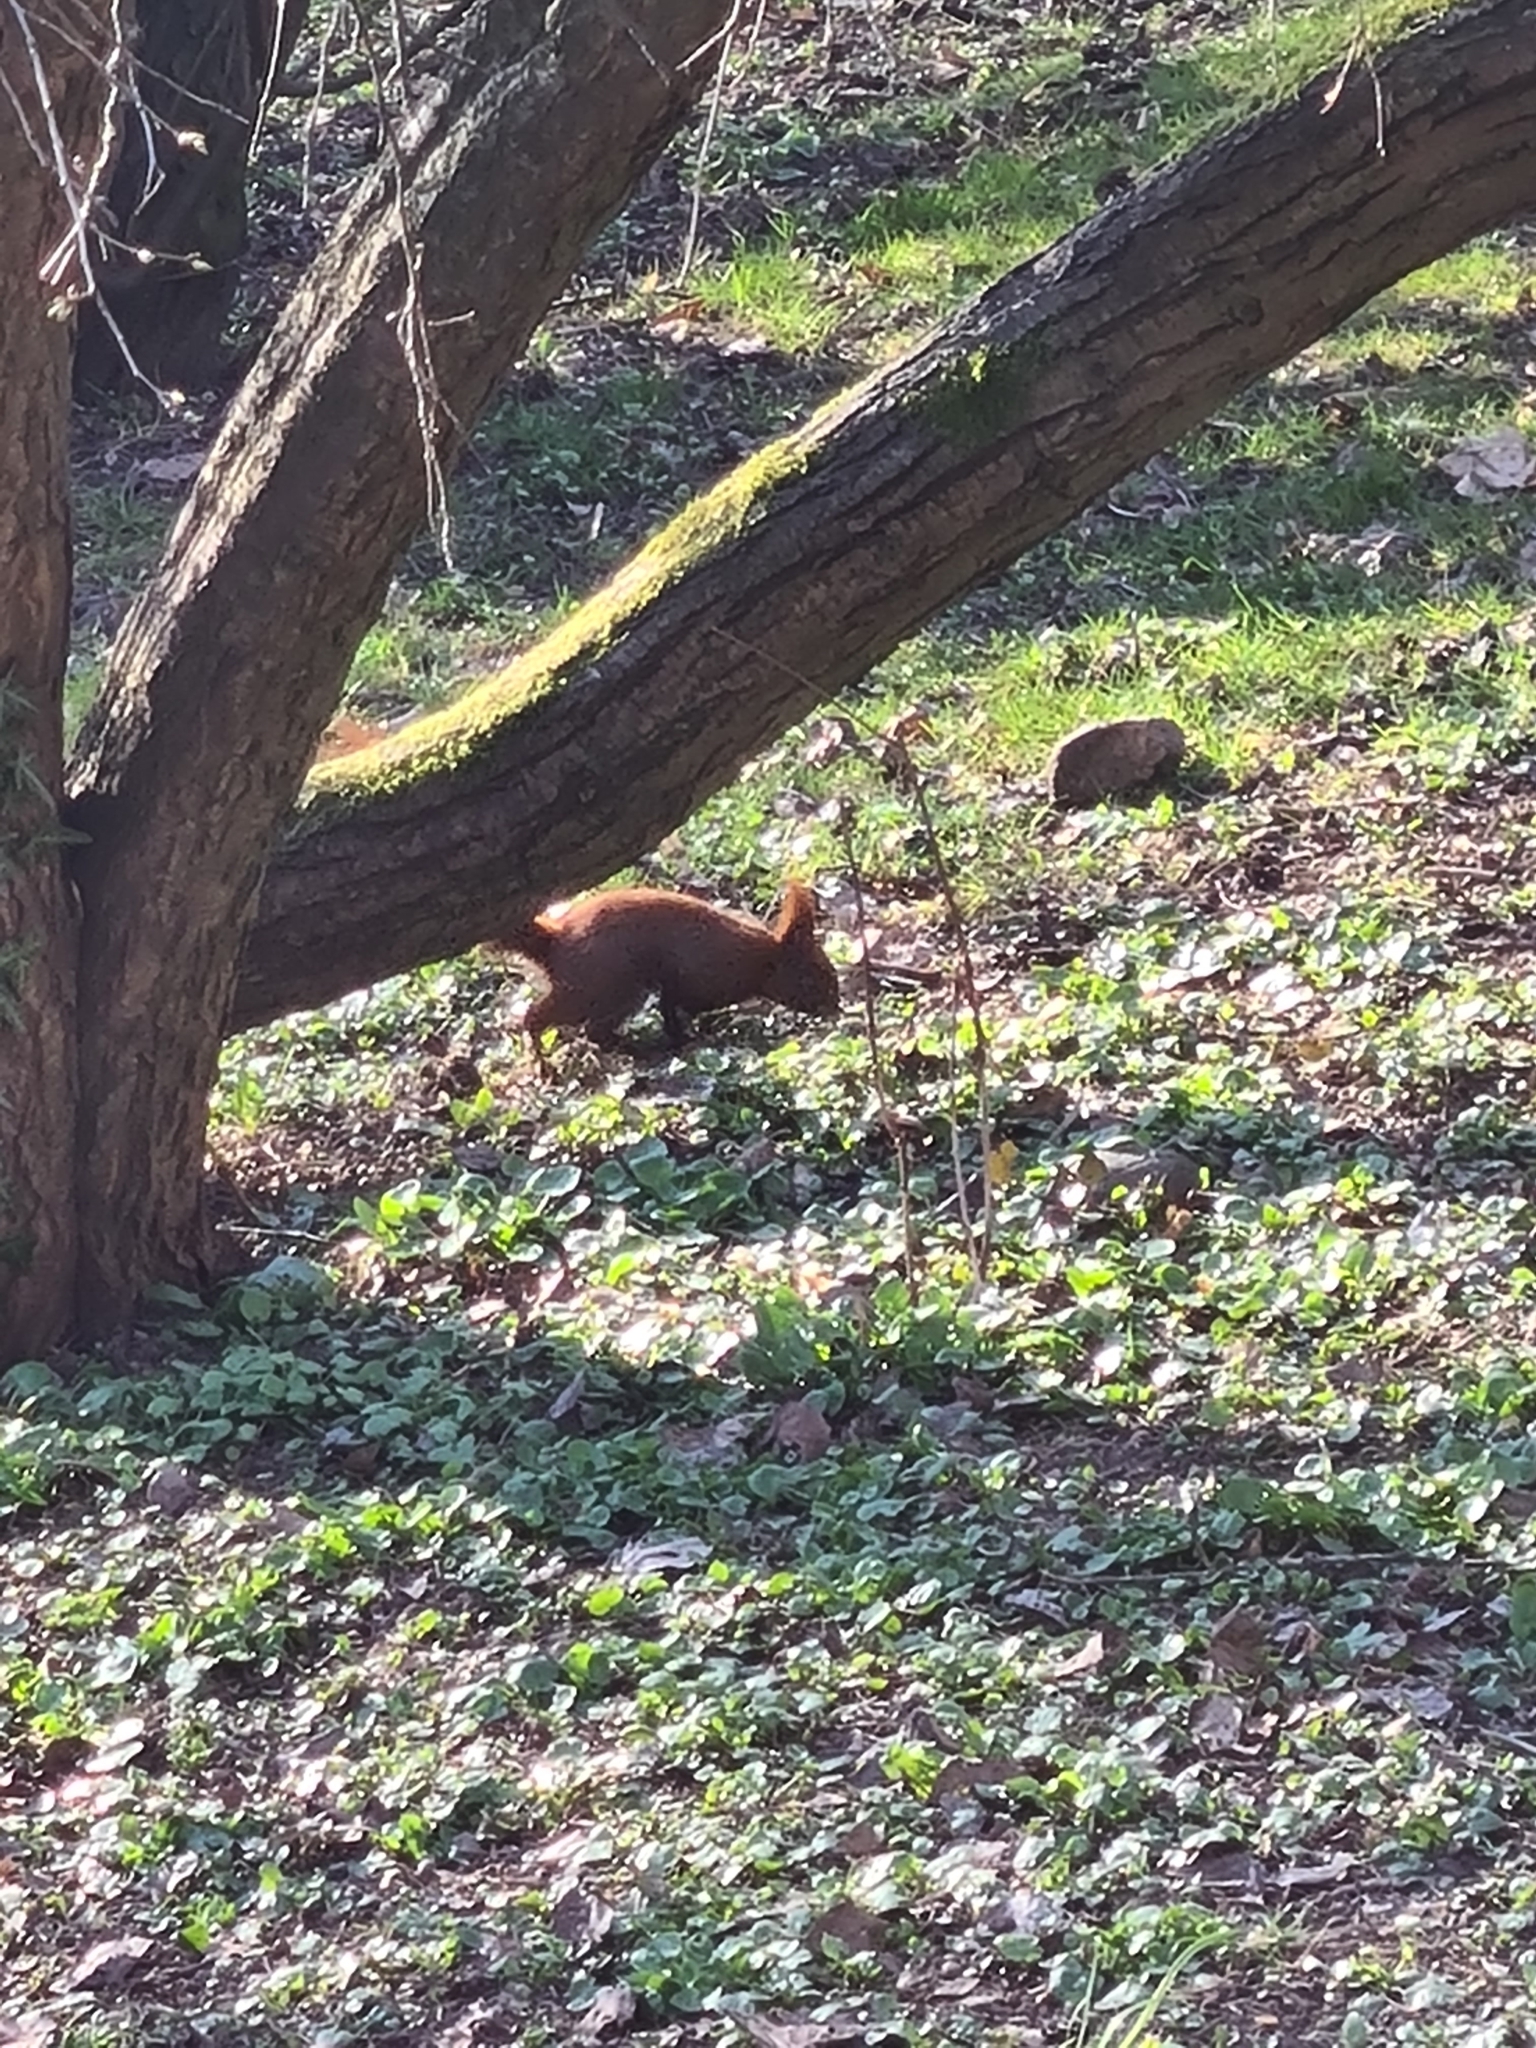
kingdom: Animalia
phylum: Chordata
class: Mammalia
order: Rodentia
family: Sciuridae
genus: Sciurus
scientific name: Sciurus vulgaris
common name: Eurasian red squirrel
